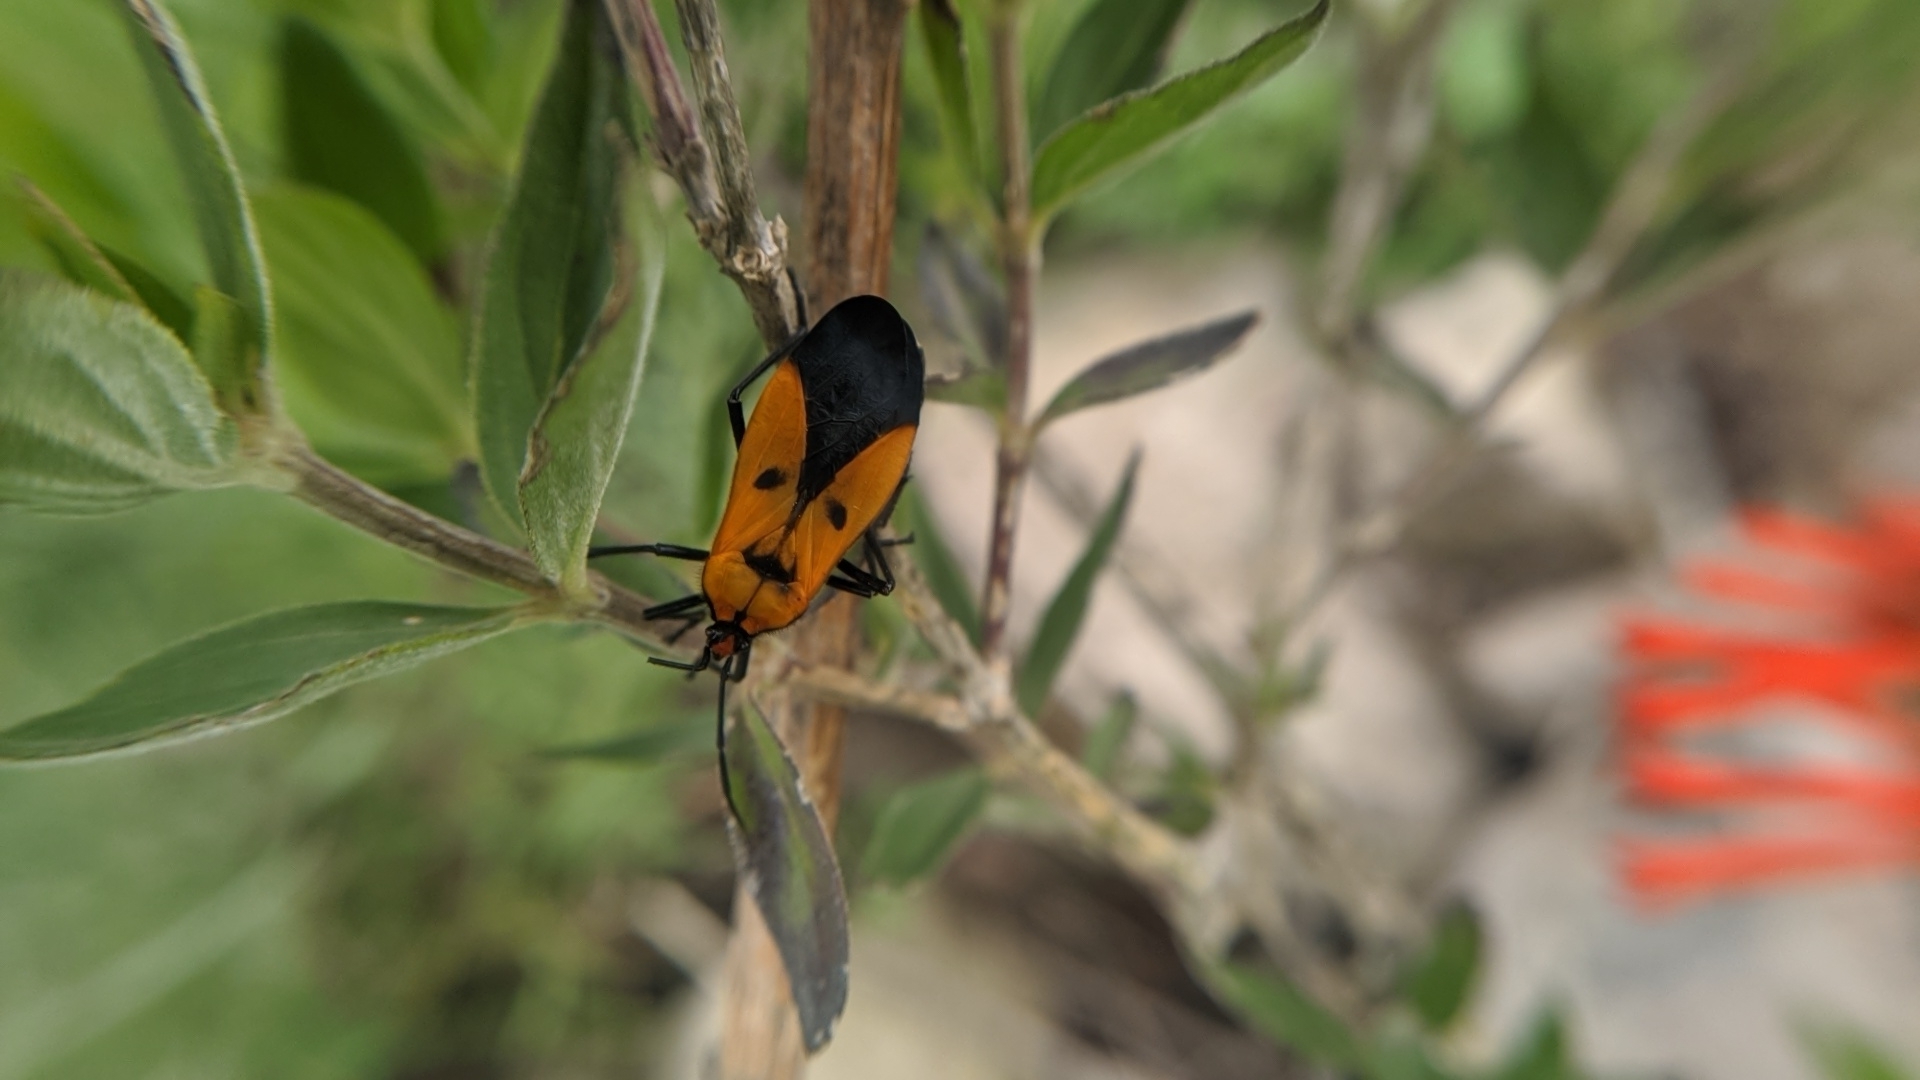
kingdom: Animalia
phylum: Arthropoda
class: Insecta
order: Hemiptera
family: Lygaeidae
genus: Oncopeltus
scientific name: Oncopeltus varicolor
